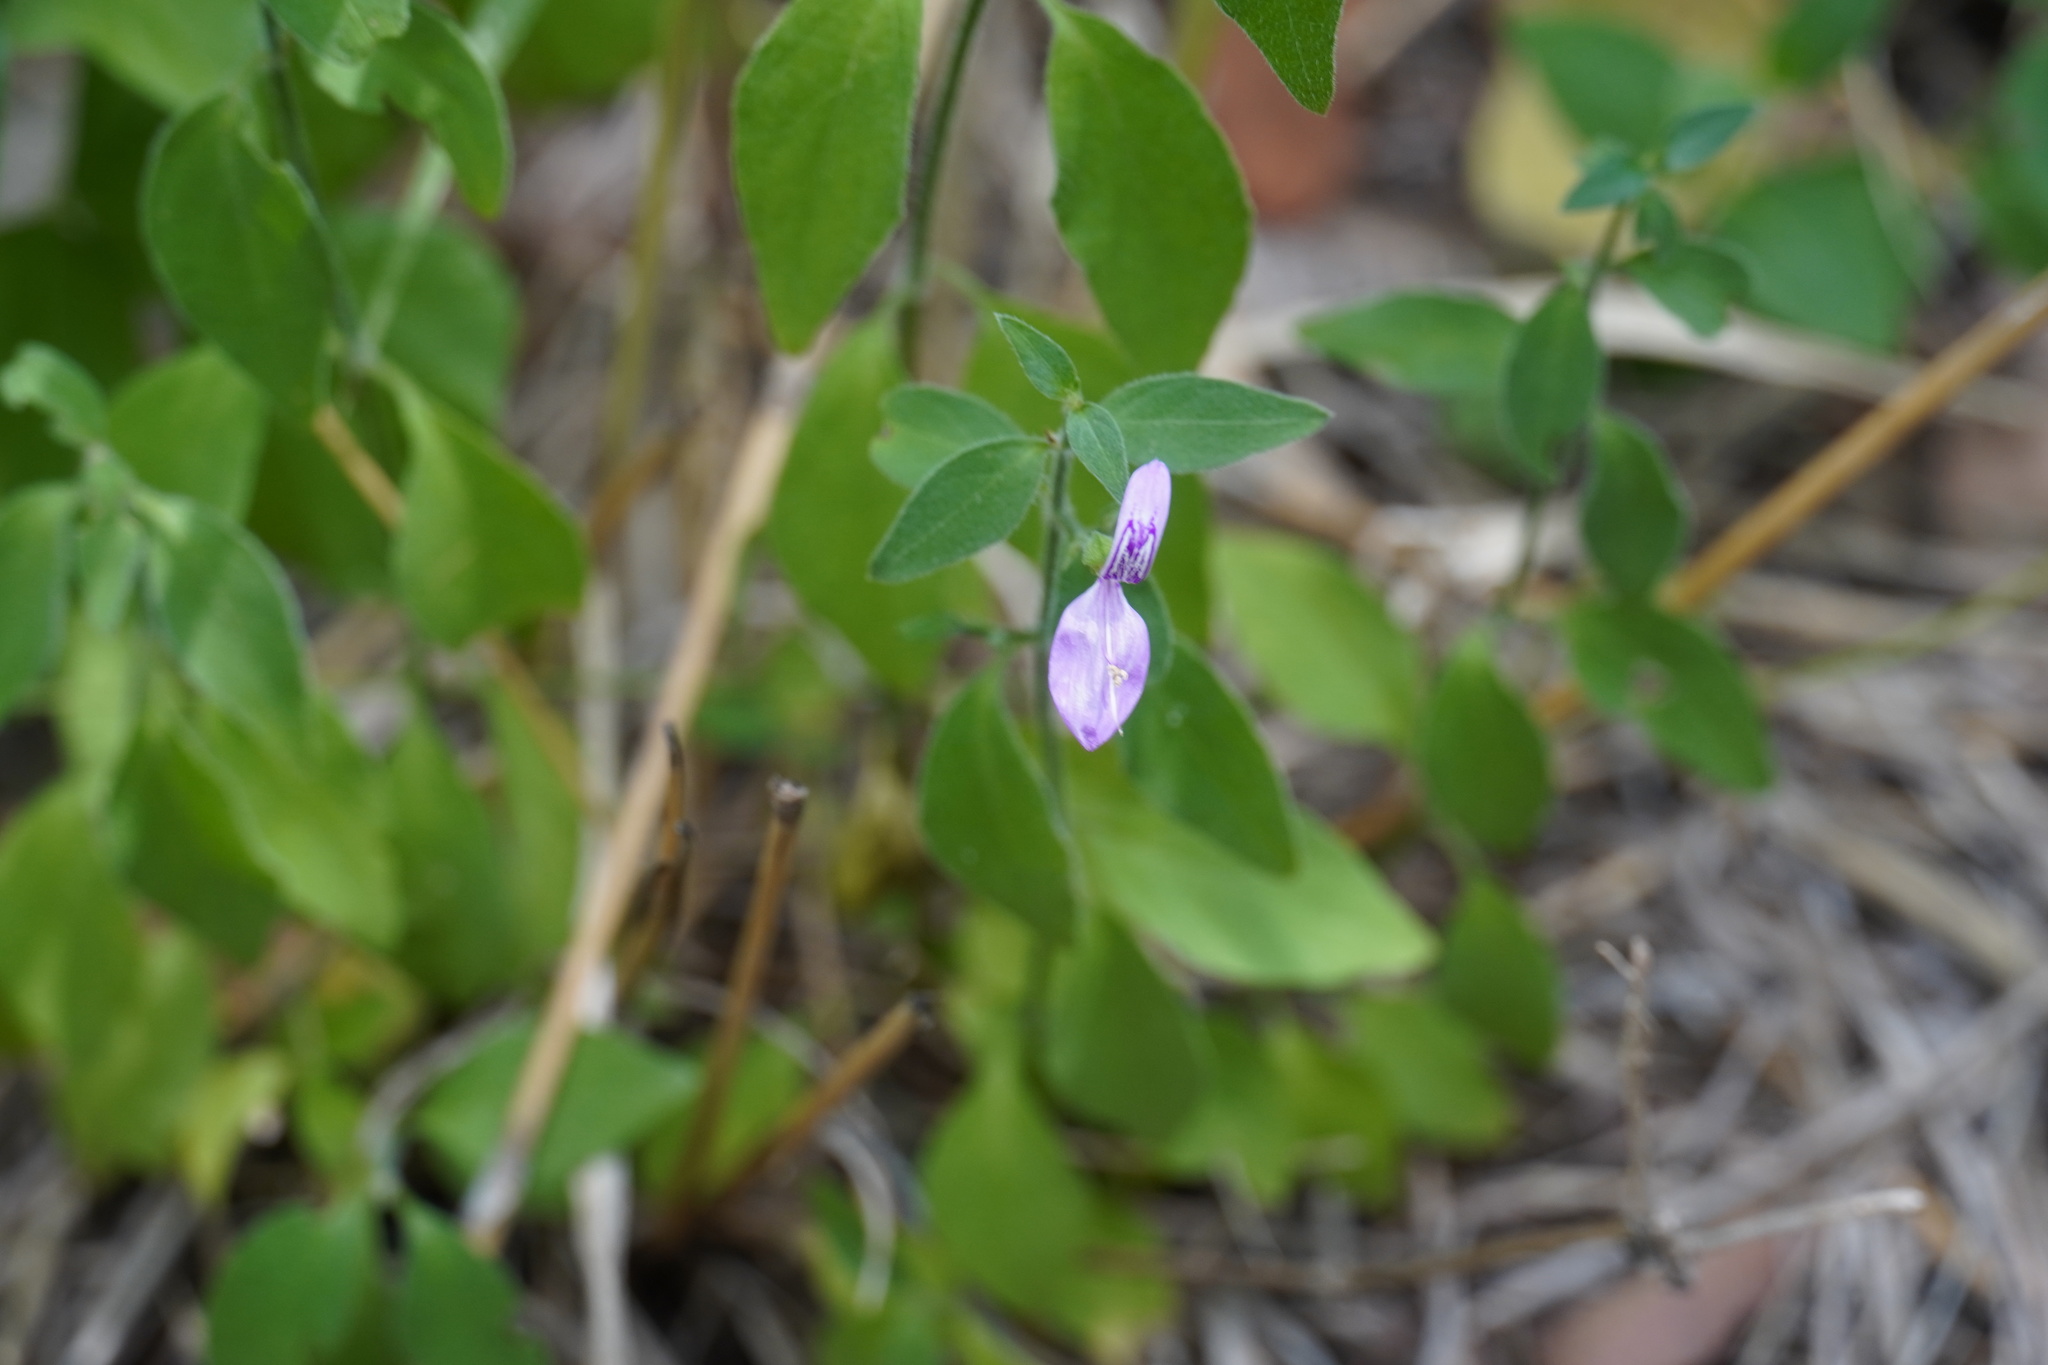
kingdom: Plantae
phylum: Tracheophyta
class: Magnoliopsida
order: Lamiales
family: Acanthaceae
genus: Dicliptera
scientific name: Dicliptera minor
